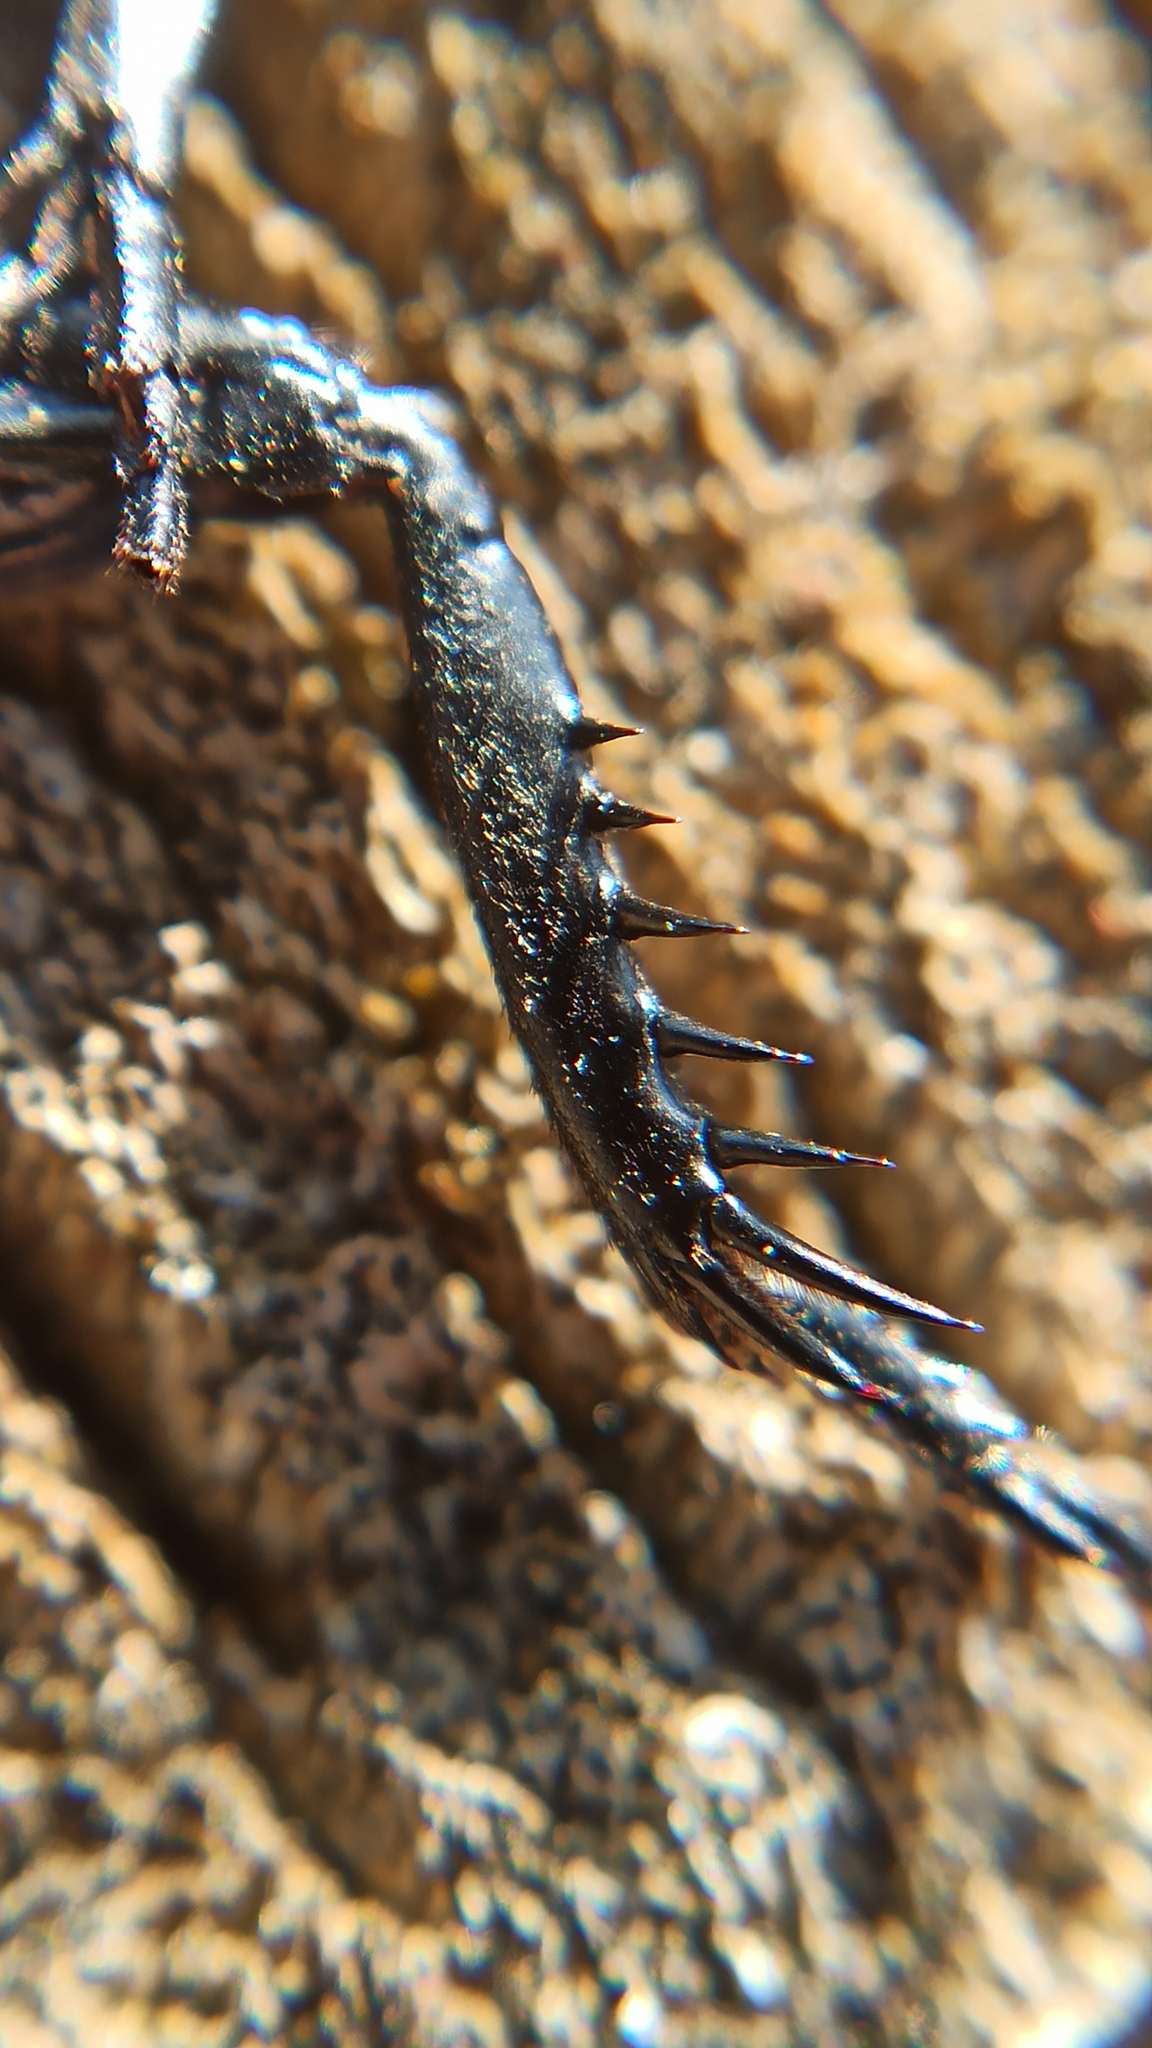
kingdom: Animalia
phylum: Arthropoda
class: Insecta
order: Orthoptera
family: Gryllidae
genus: Gryllus
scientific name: Gryllus campestris
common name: Field cricket
